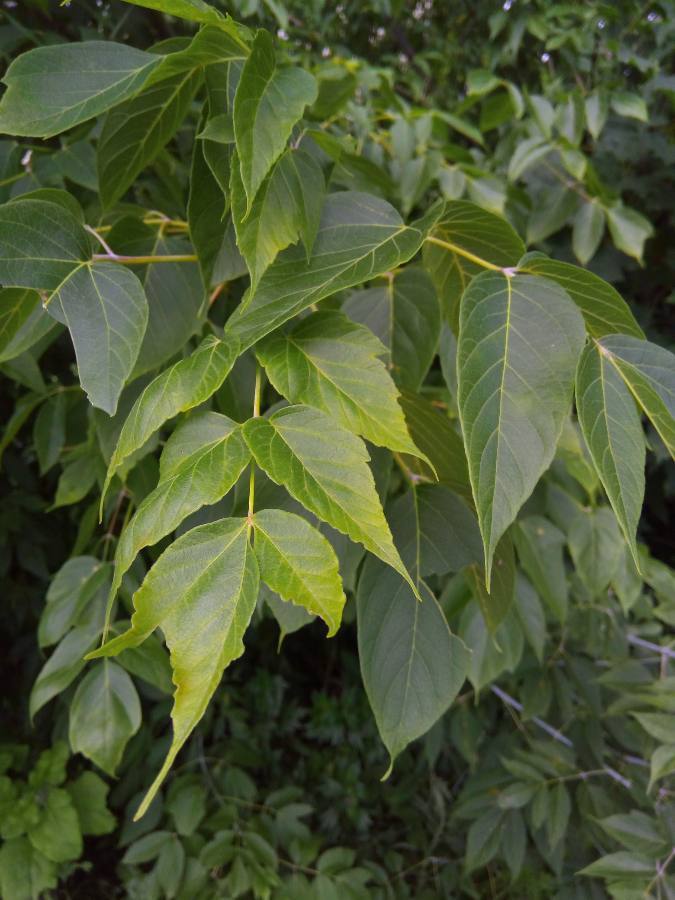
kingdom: Plantae
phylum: Tracheophyta
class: Magnoliopsida
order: Sapindales
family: Sapindaceae
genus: Acer
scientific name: Acer negundo
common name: Ashleaf maple
